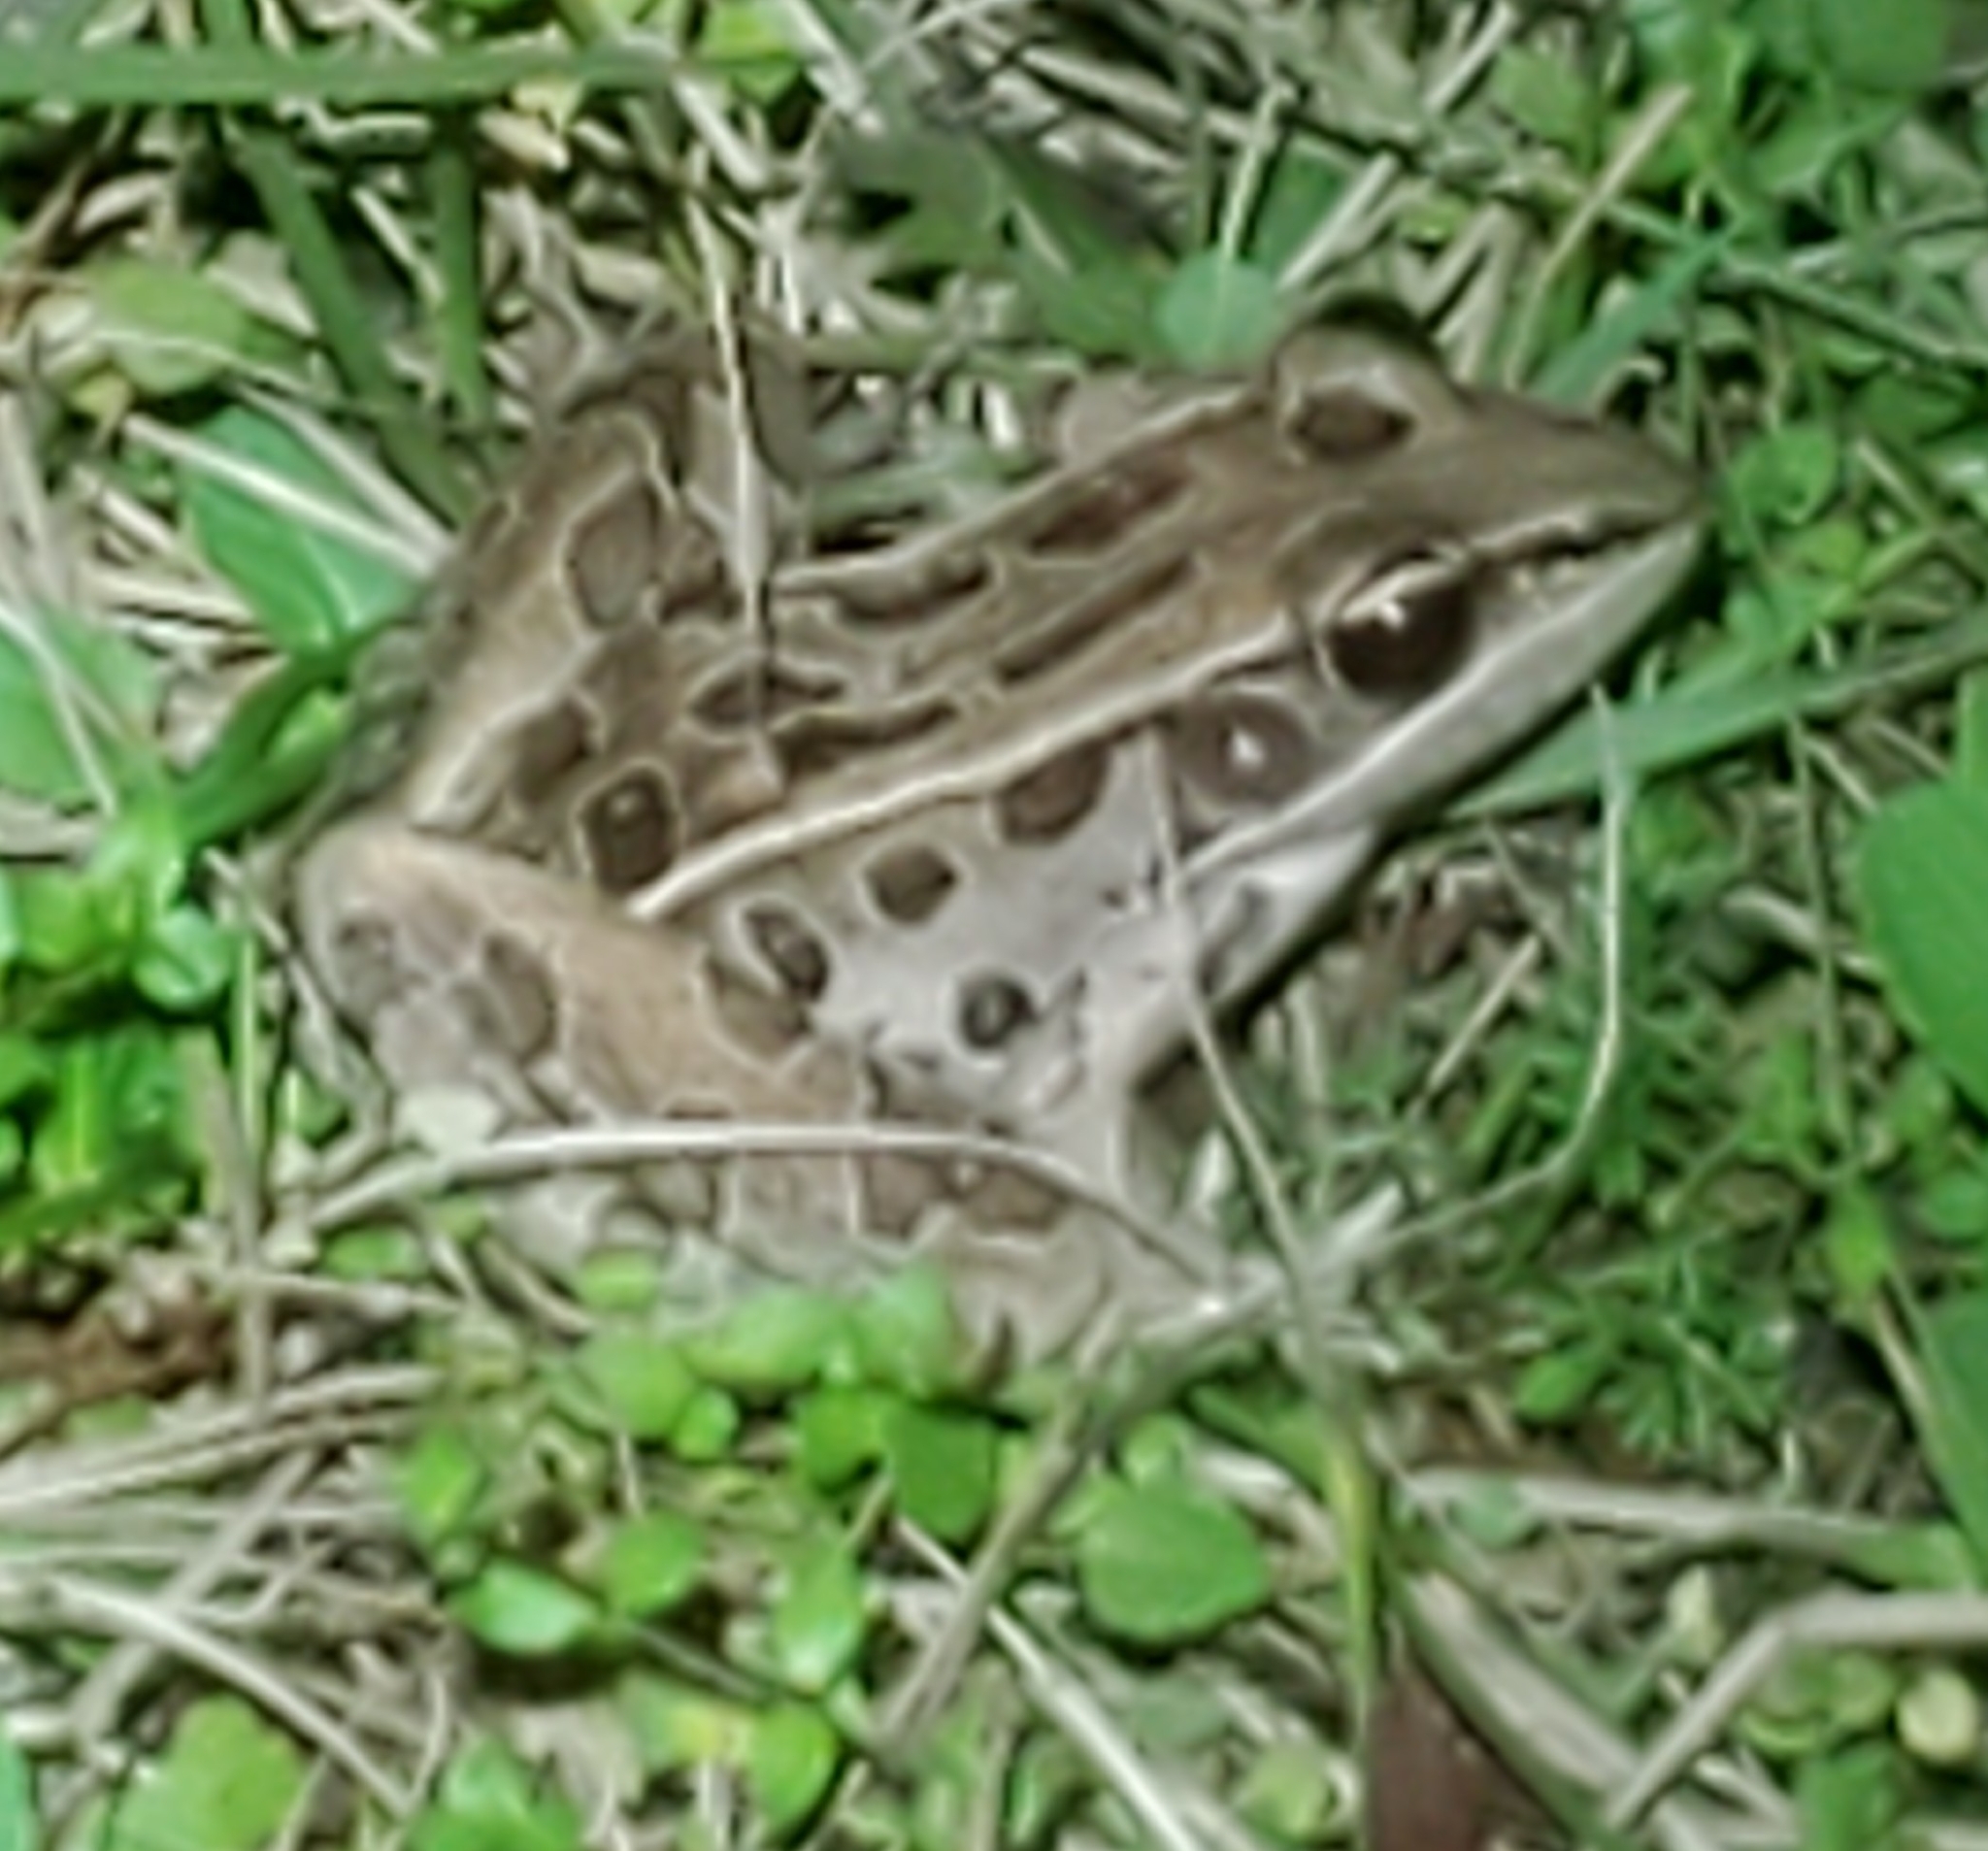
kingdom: Animalia
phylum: Chordata
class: Amphibia
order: Anura
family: Ranidae
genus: Lithobates
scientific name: Lithobates sphenocephalus
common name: Southern leopard frog
